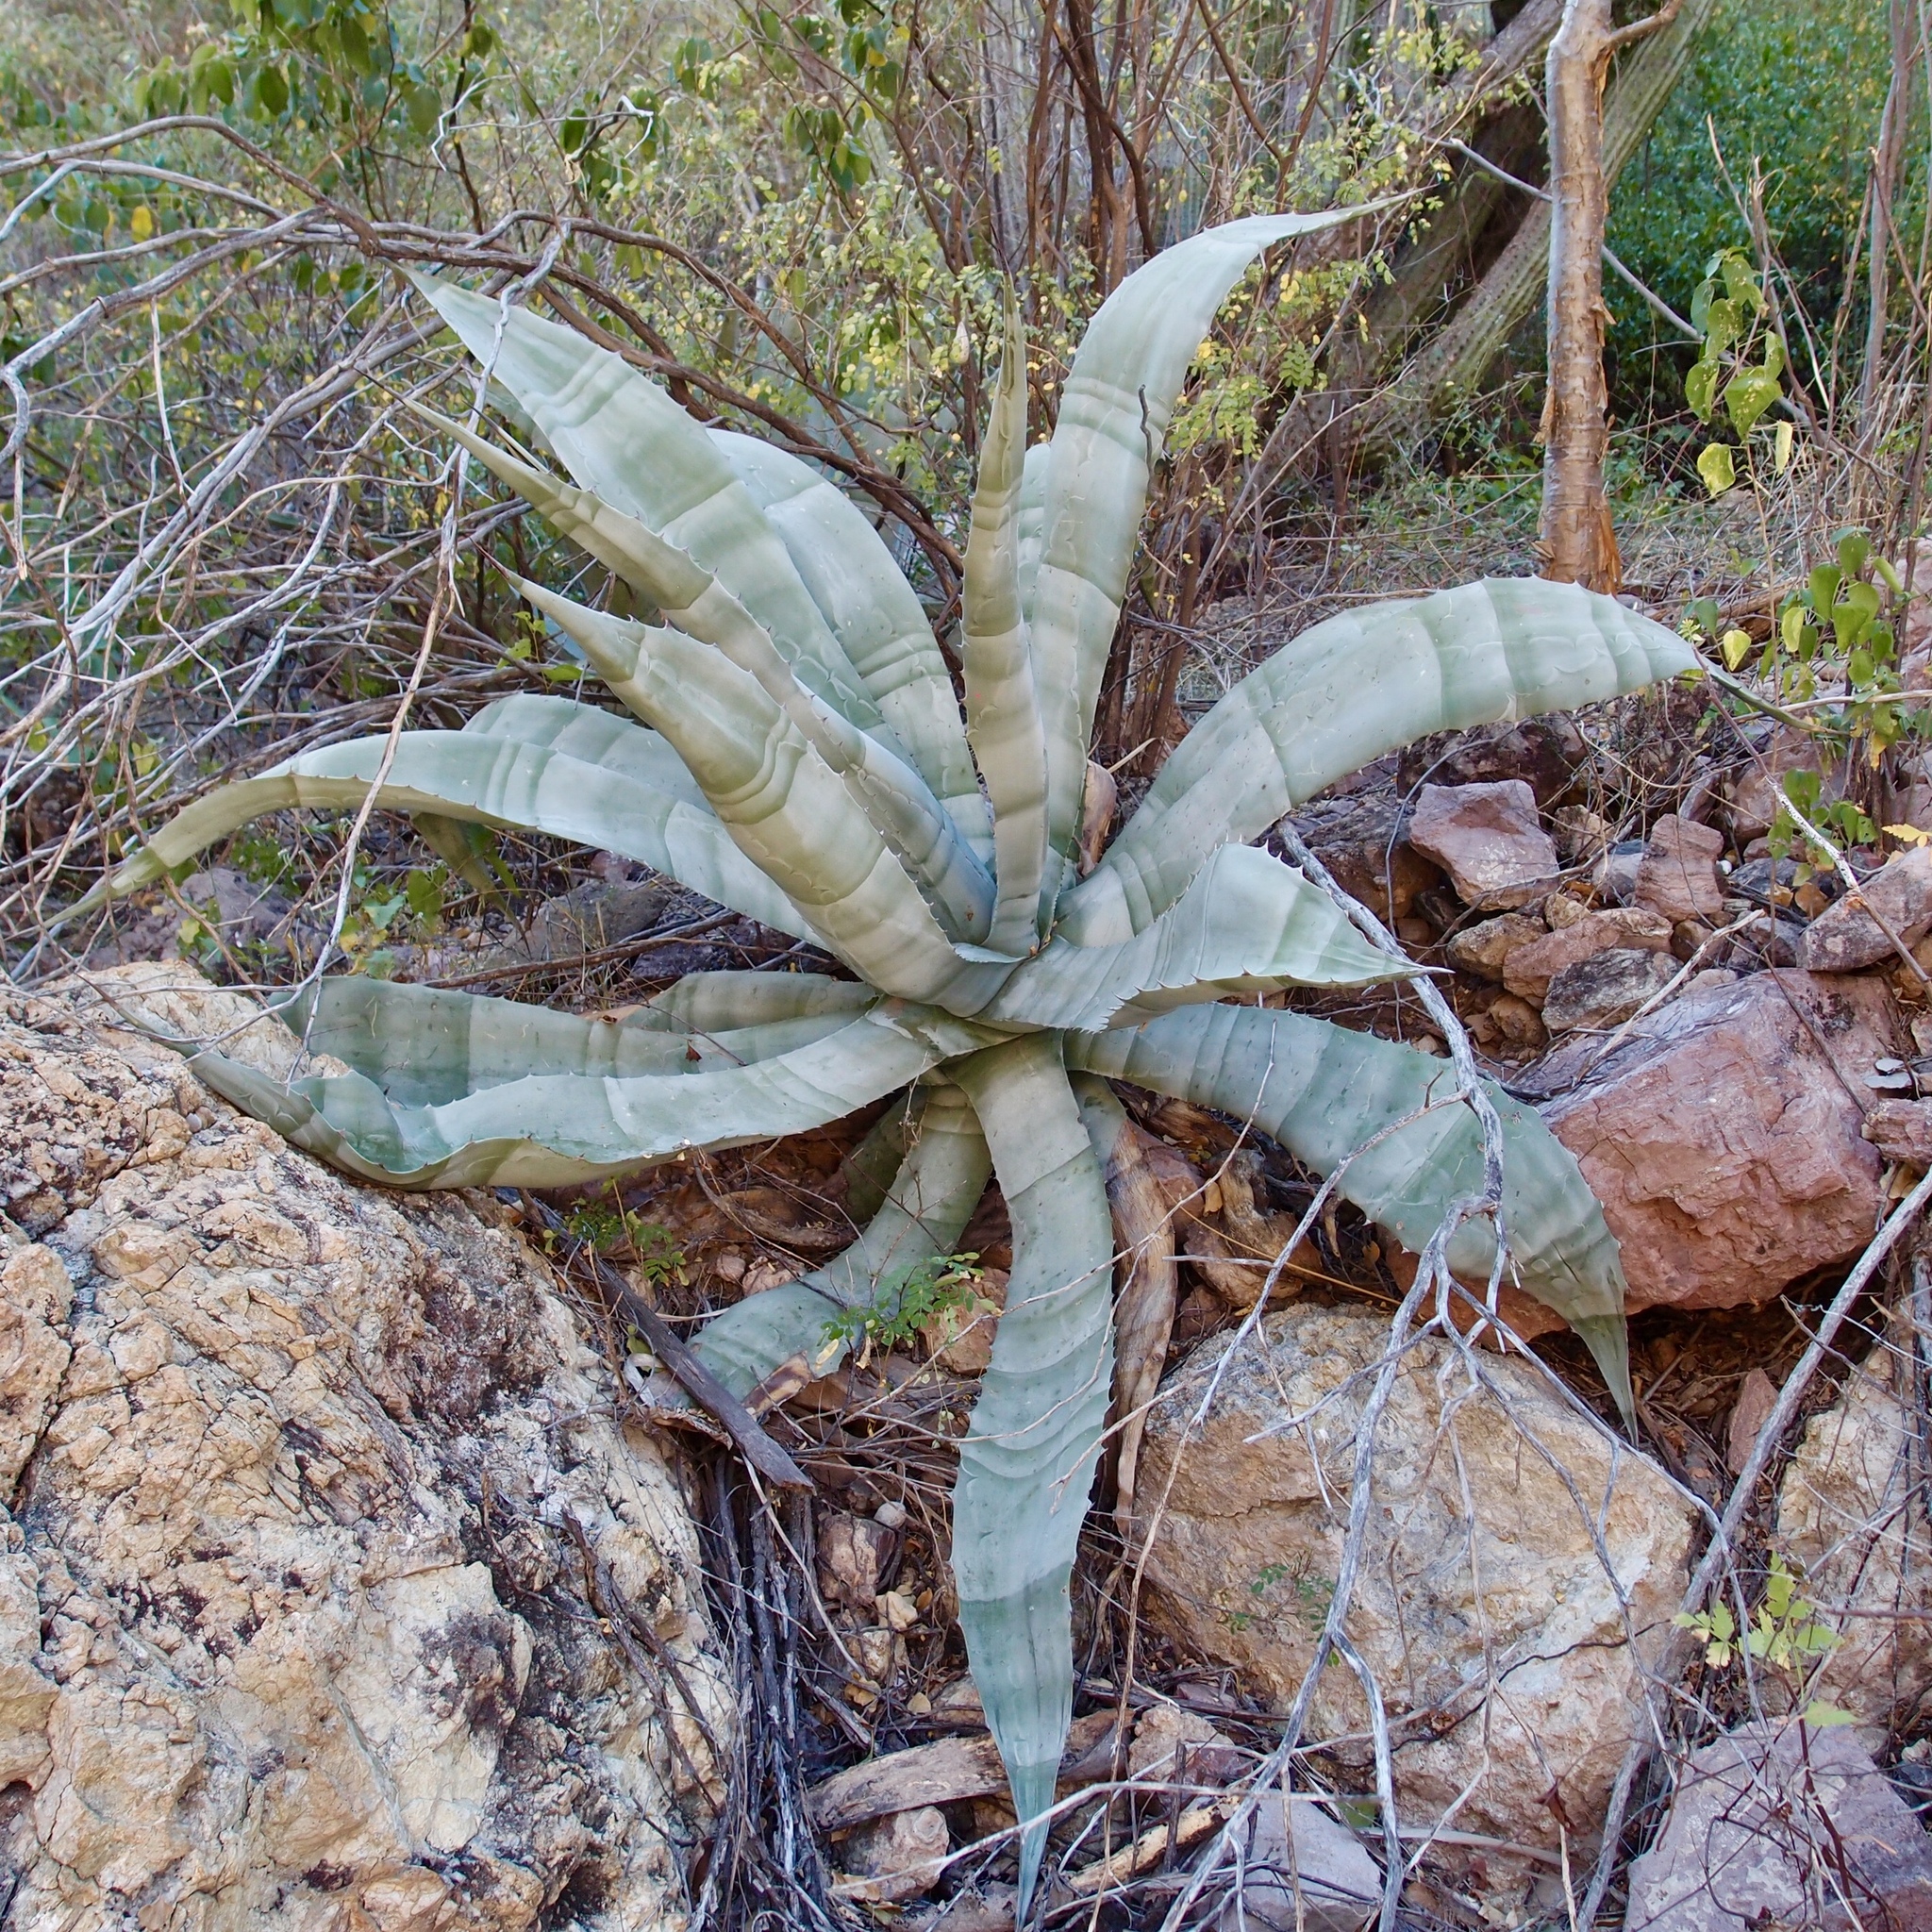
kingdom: Plantae
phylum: Tracheophyta
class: Liliopsida
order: Asparagales
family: Asparagaceae
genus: Agave
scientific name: Agave colorata
